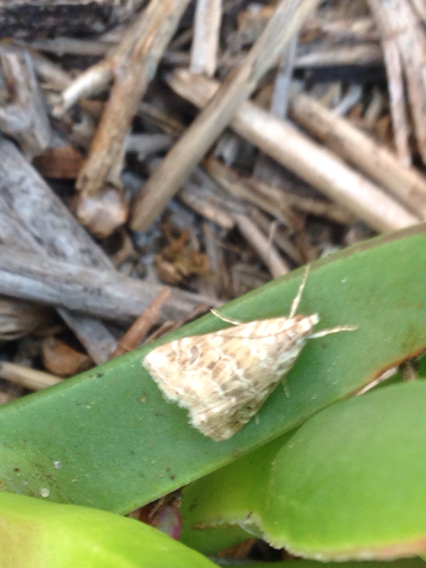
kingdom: Animalia
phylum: Arthropoda
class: Insecta
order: Lepidoptera
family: Crambidae
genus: Hellula
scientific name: Hellula rogatalis
